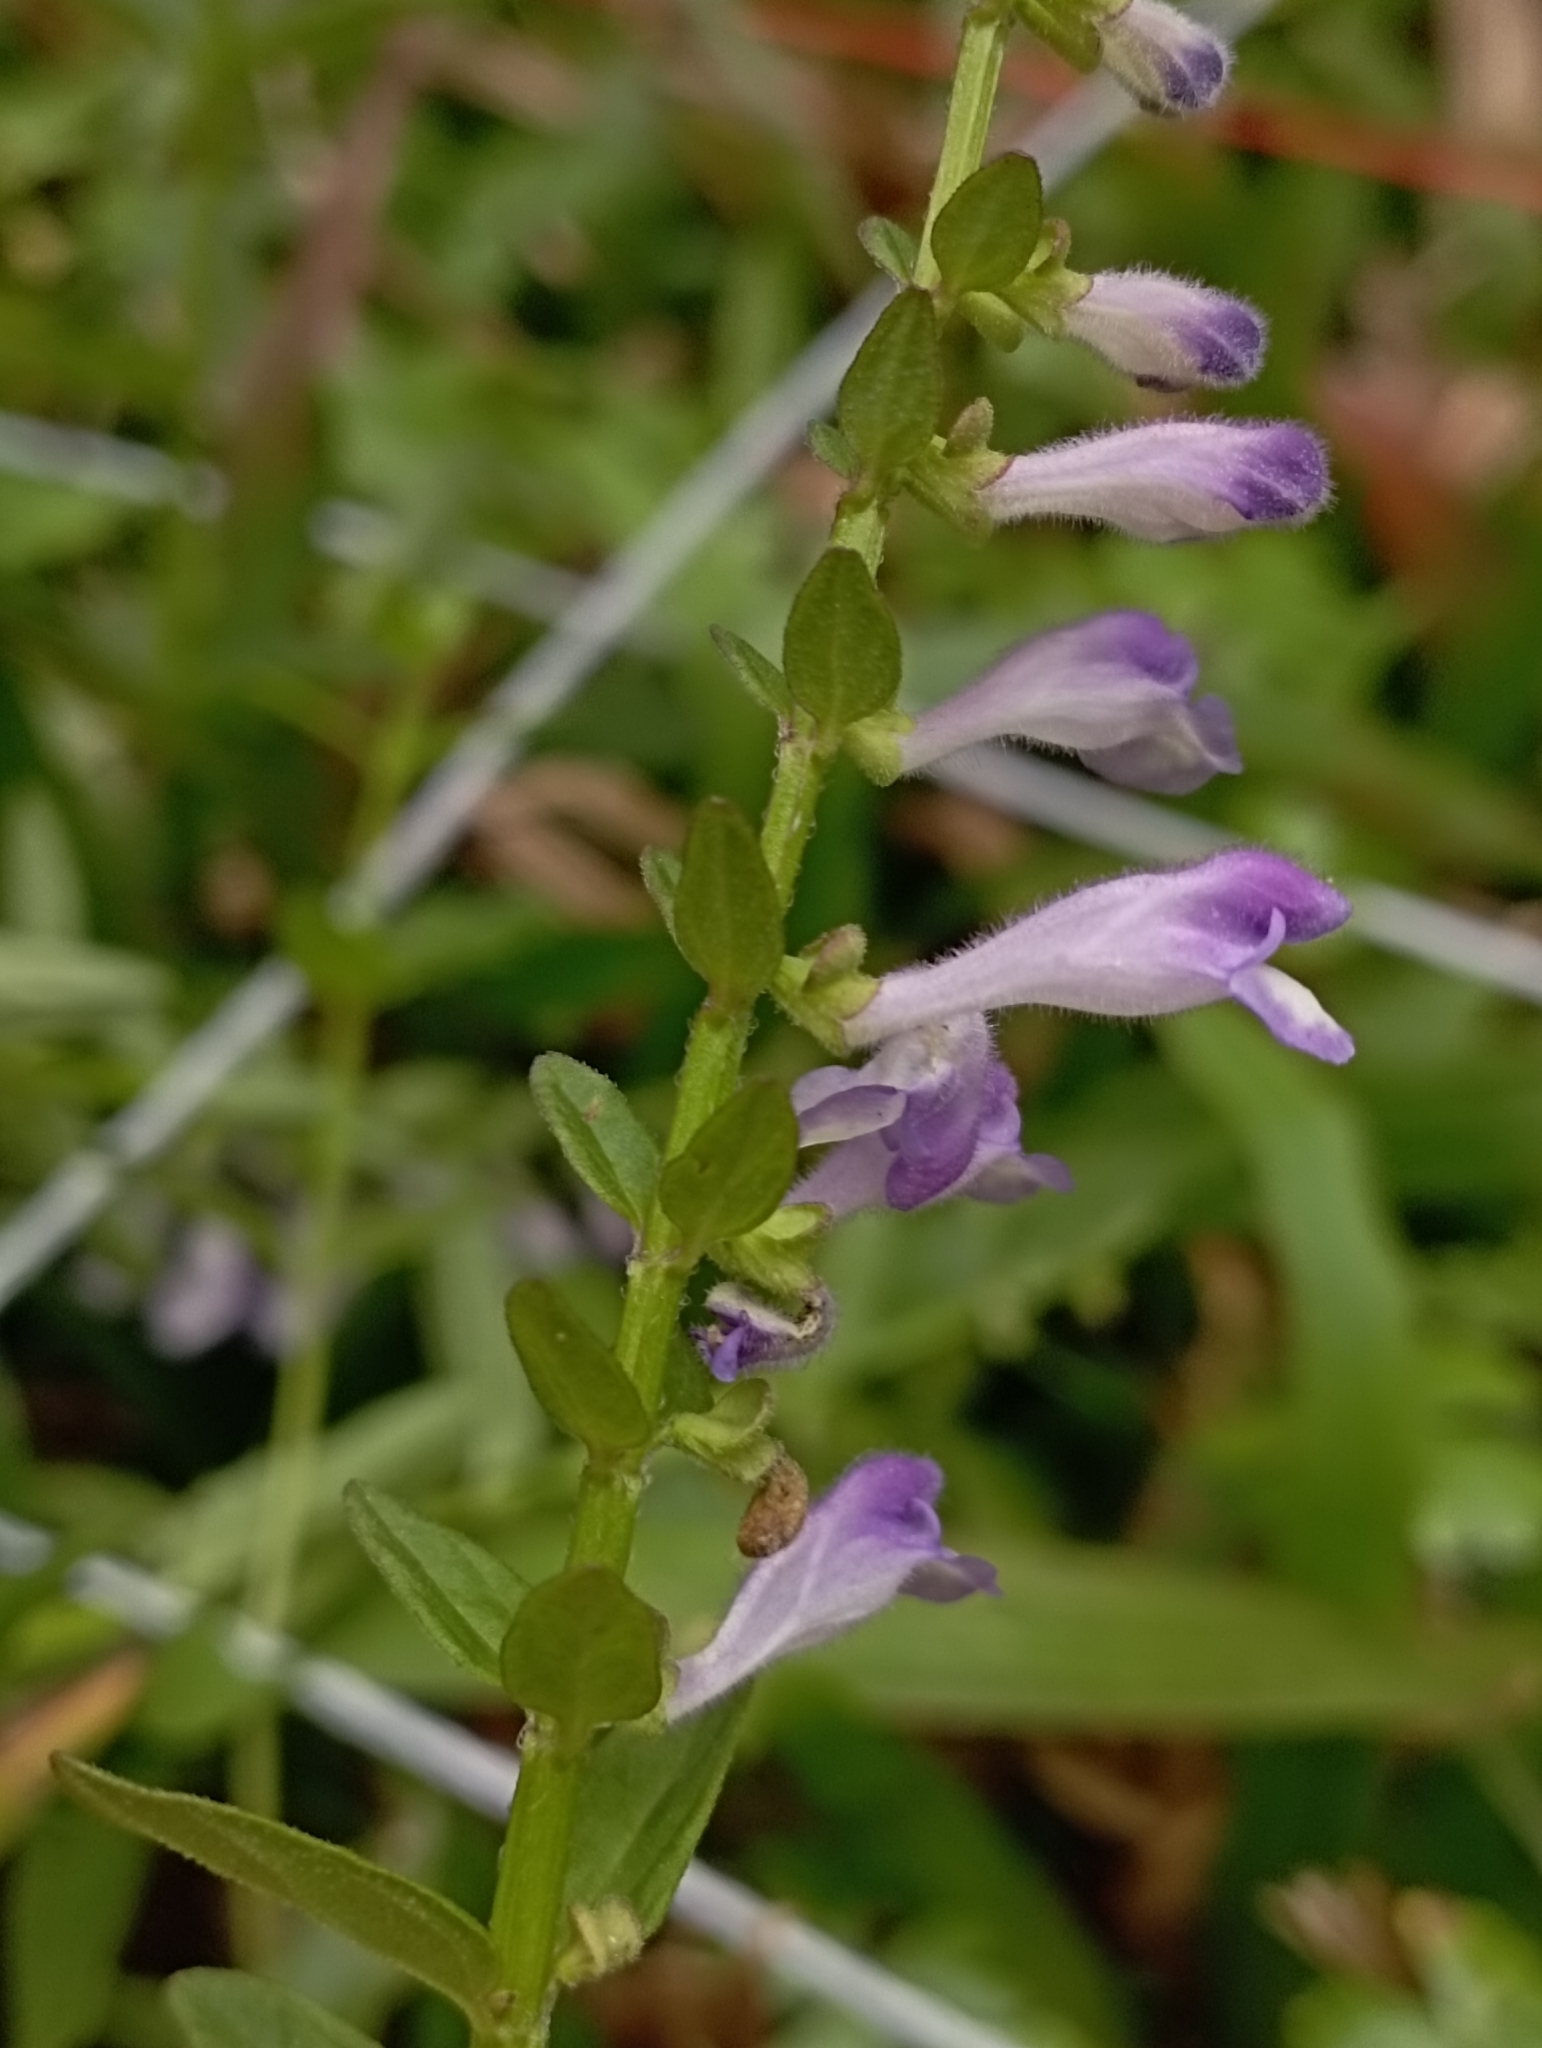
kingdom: Plantae
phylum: Tracheophyta
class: Magnoliopsida
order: Lamiales
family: Lamiaceae
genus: Scutellaria
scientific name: Scutellaria barbata
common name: Barbed skullcap
